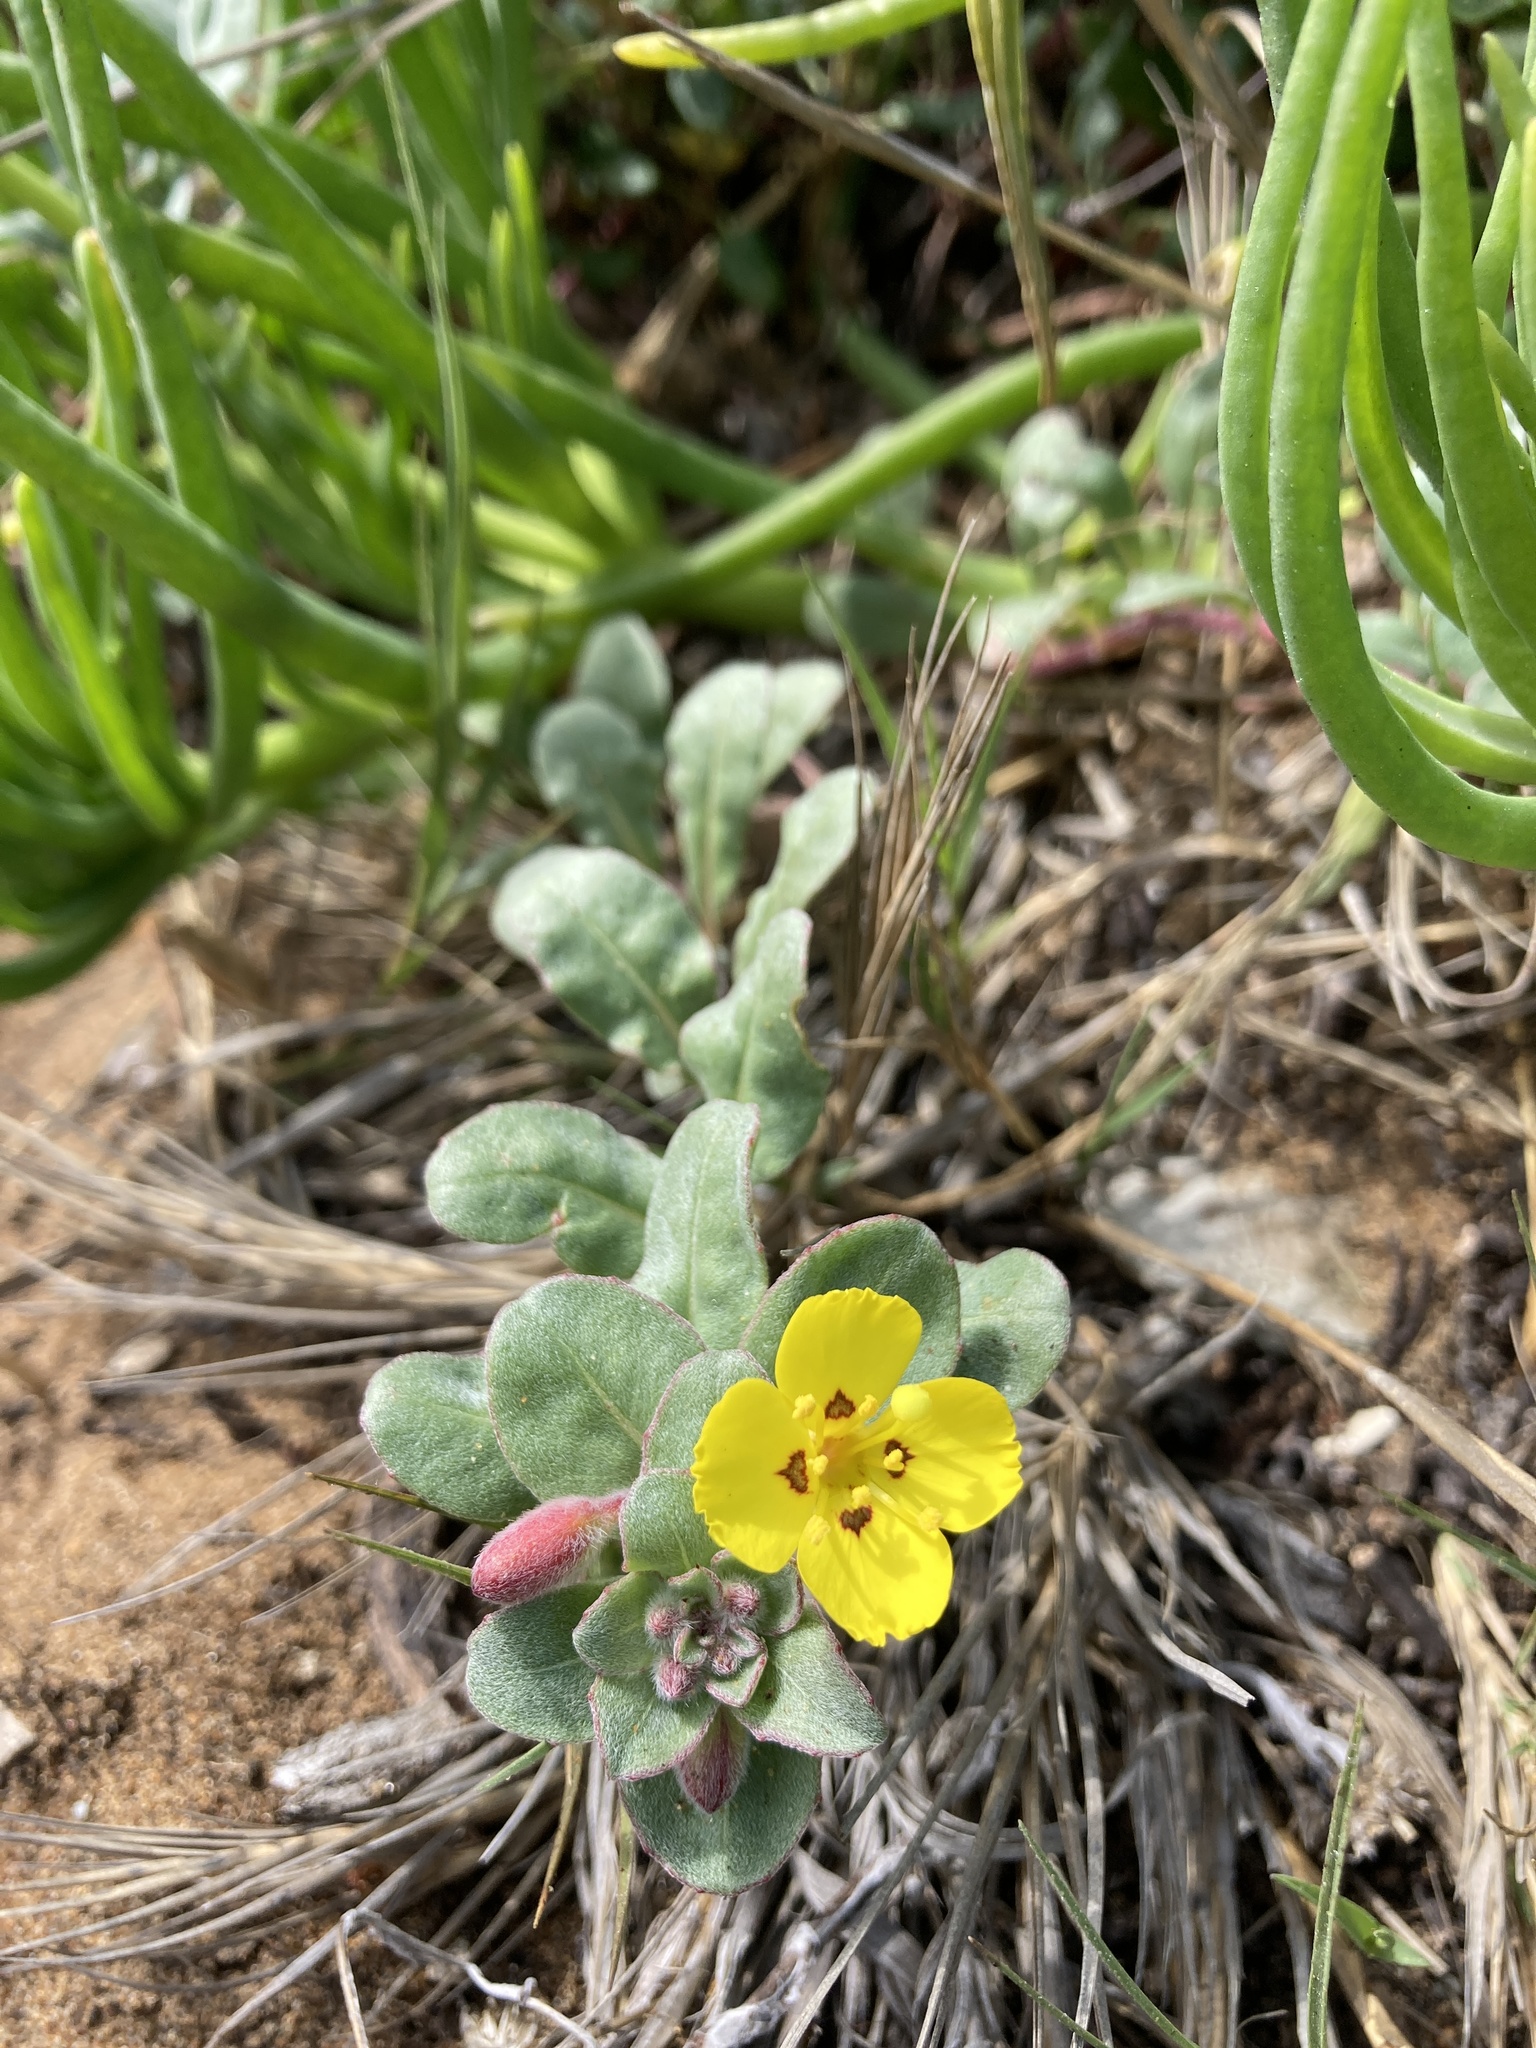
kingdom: Plantae
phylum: Tracheophyta
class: Magnoliopsida
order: Myrtales
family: Onagraceae
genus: Camissoniopsis
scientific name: Camissoniopsis cheiranthifolia
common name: Beach suncup
